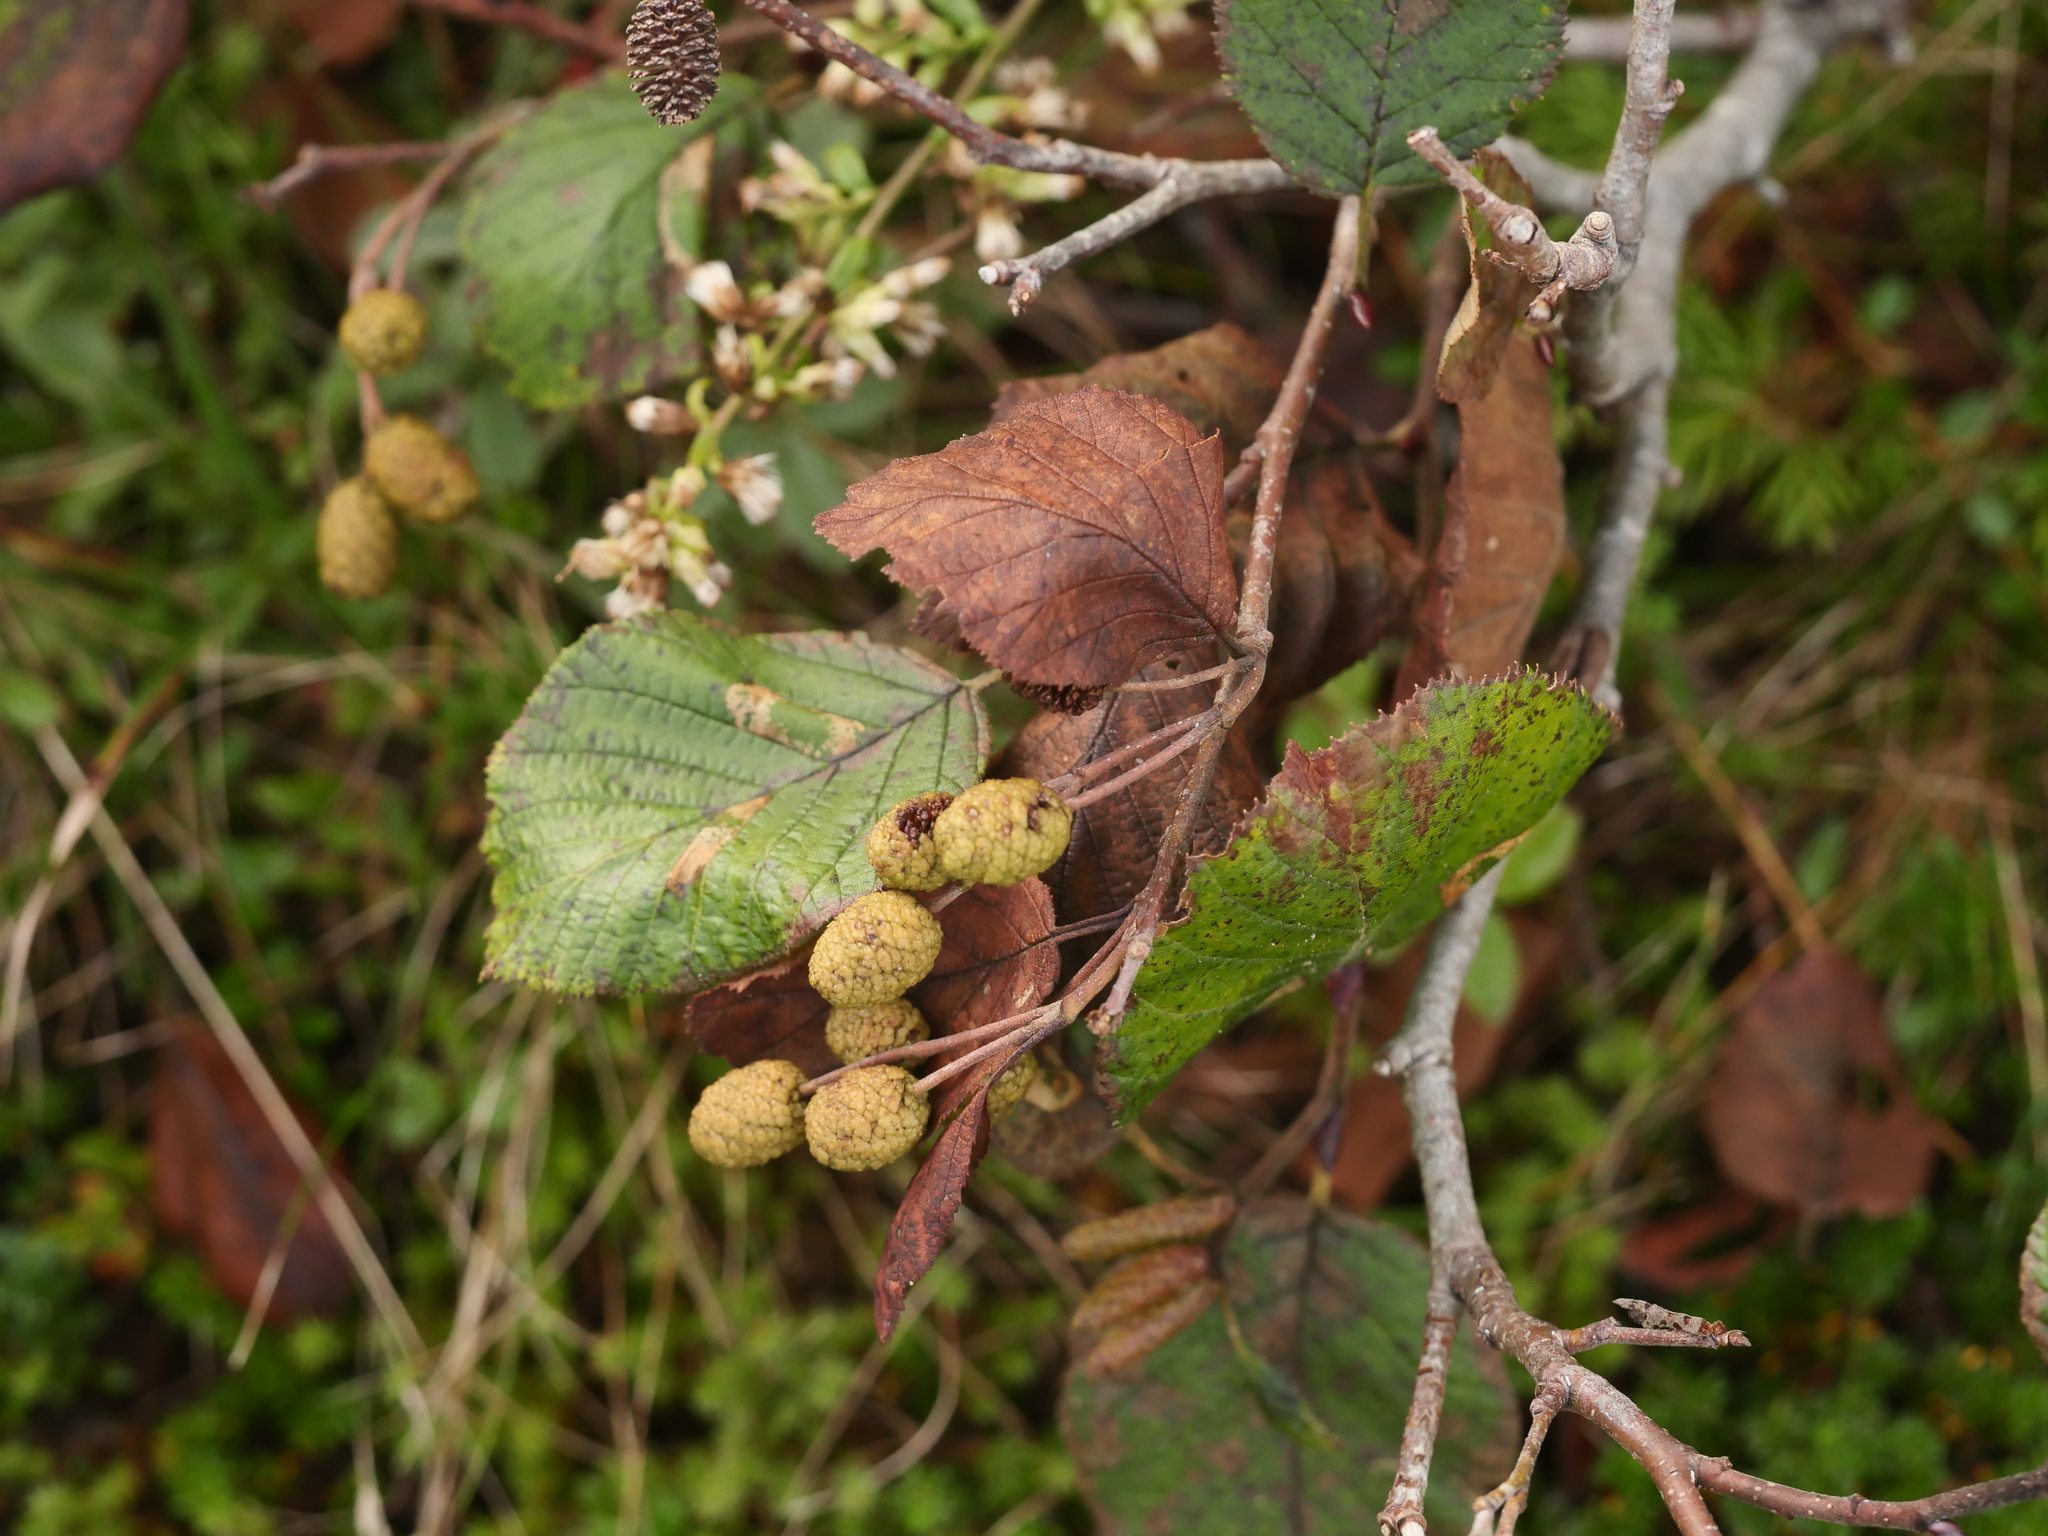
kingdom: Plantae
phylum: Tracheophyta
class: Magnoliopsida
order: Fagales
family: Betulaceae
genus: Alnus
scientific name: Alnus alnobetula
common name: Green alder
